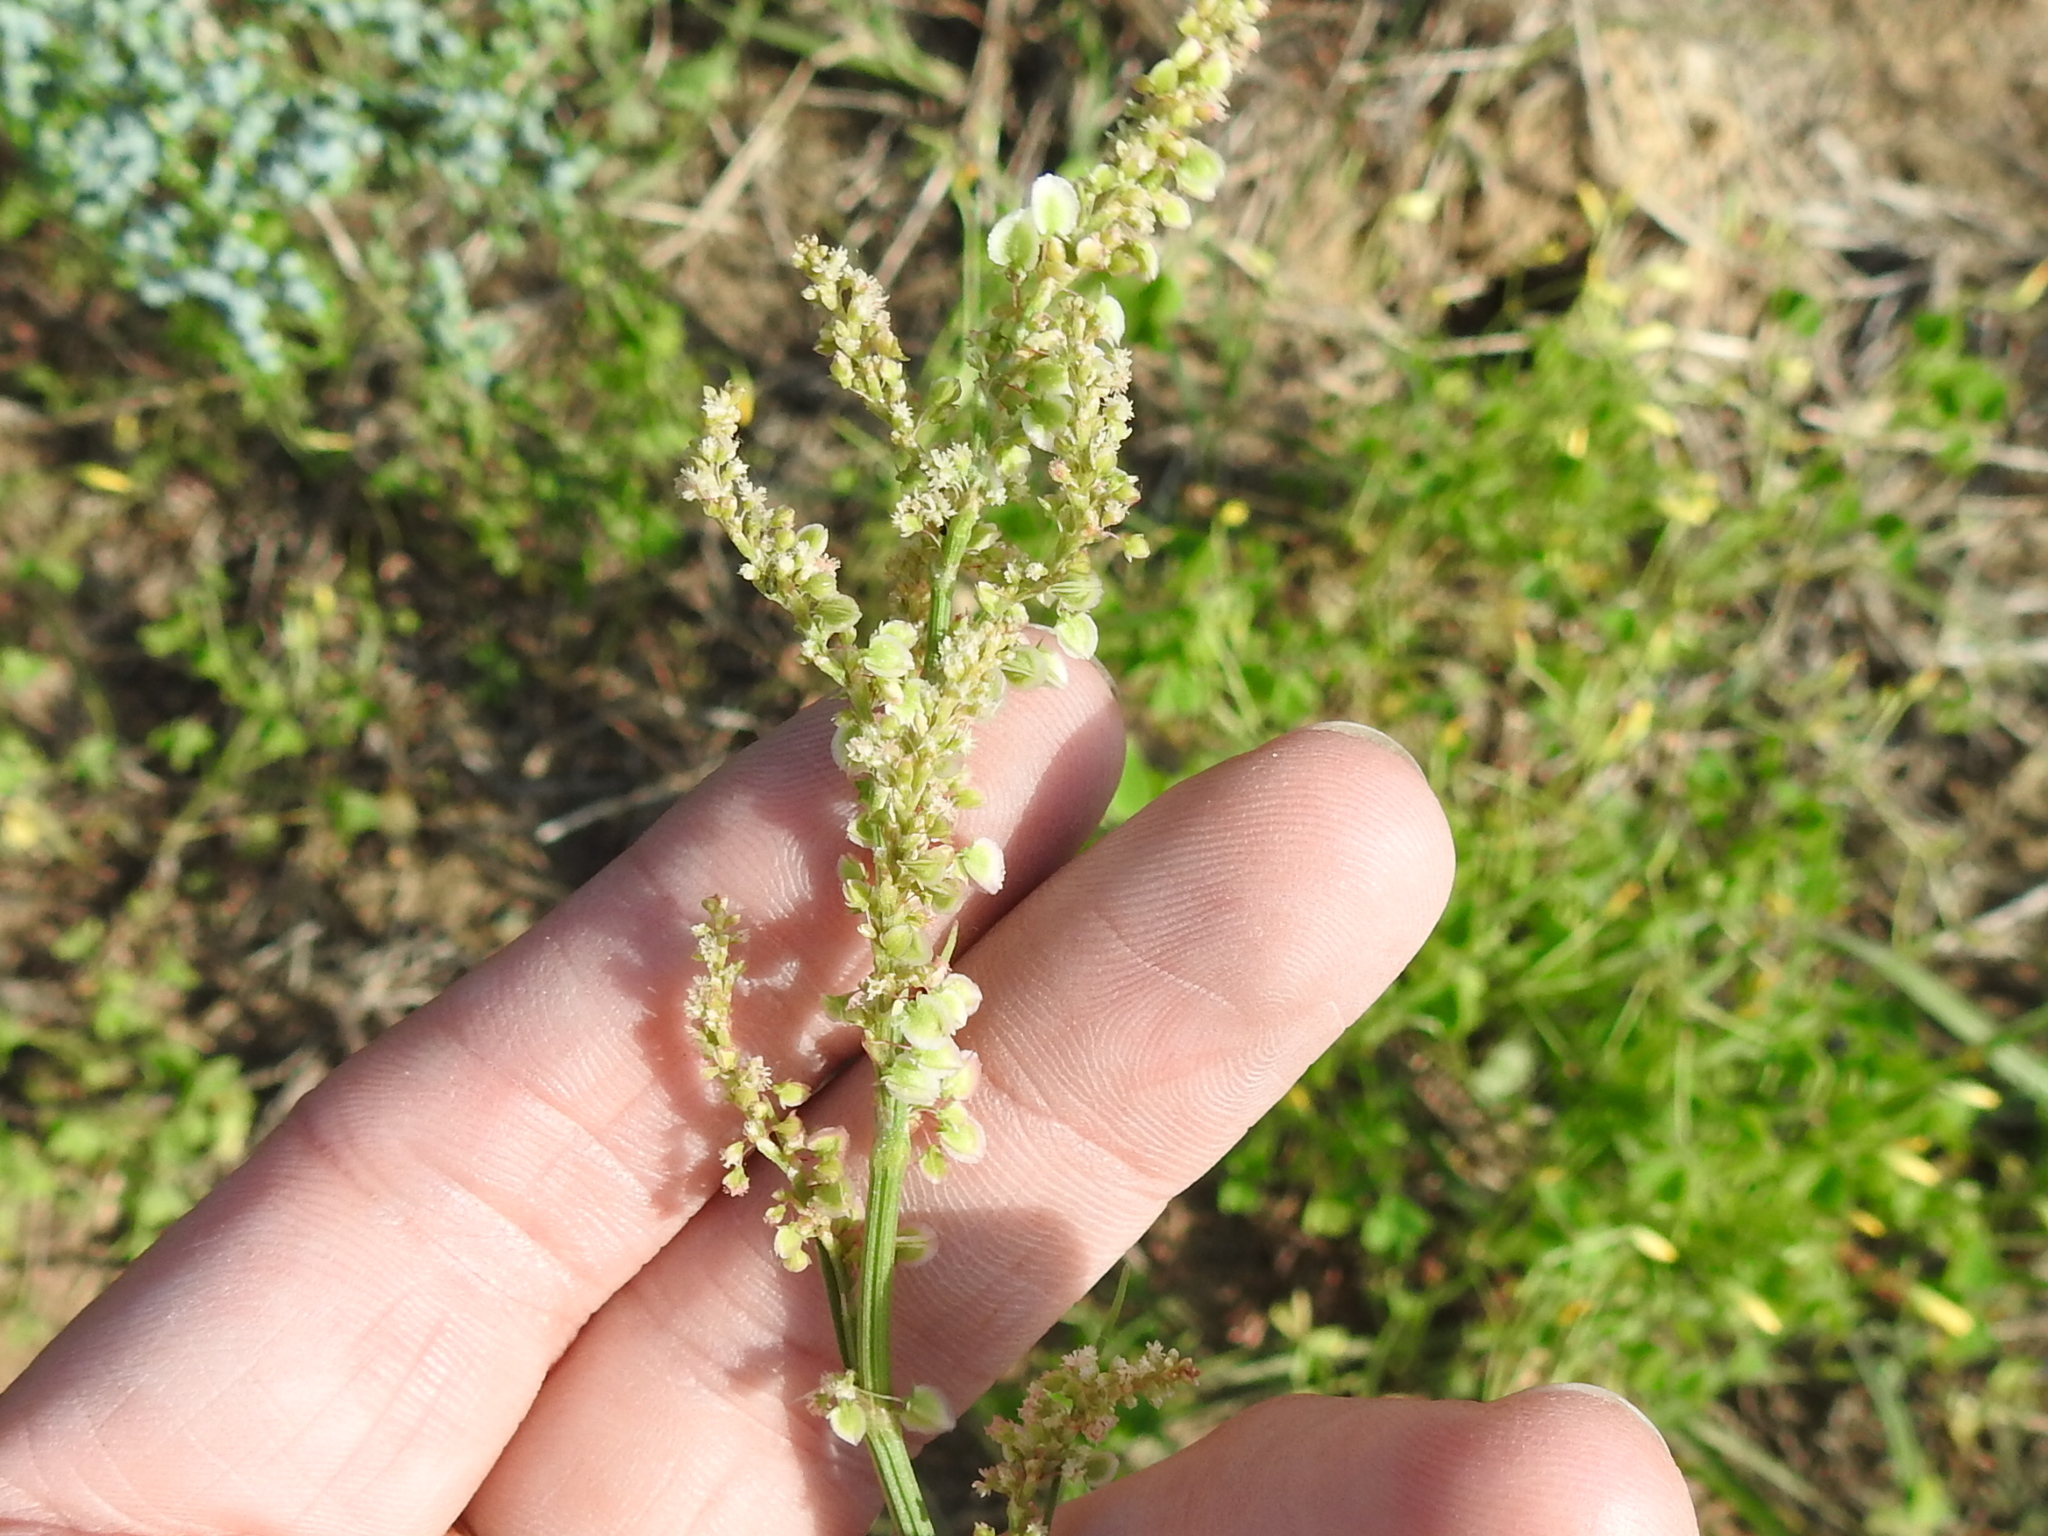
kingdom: Plantae
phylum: Tracheophyta
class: Magnoliopsida
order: Caryophyllales
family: Polygonaceae
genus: Rumex
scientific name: Rumex hastatulus
